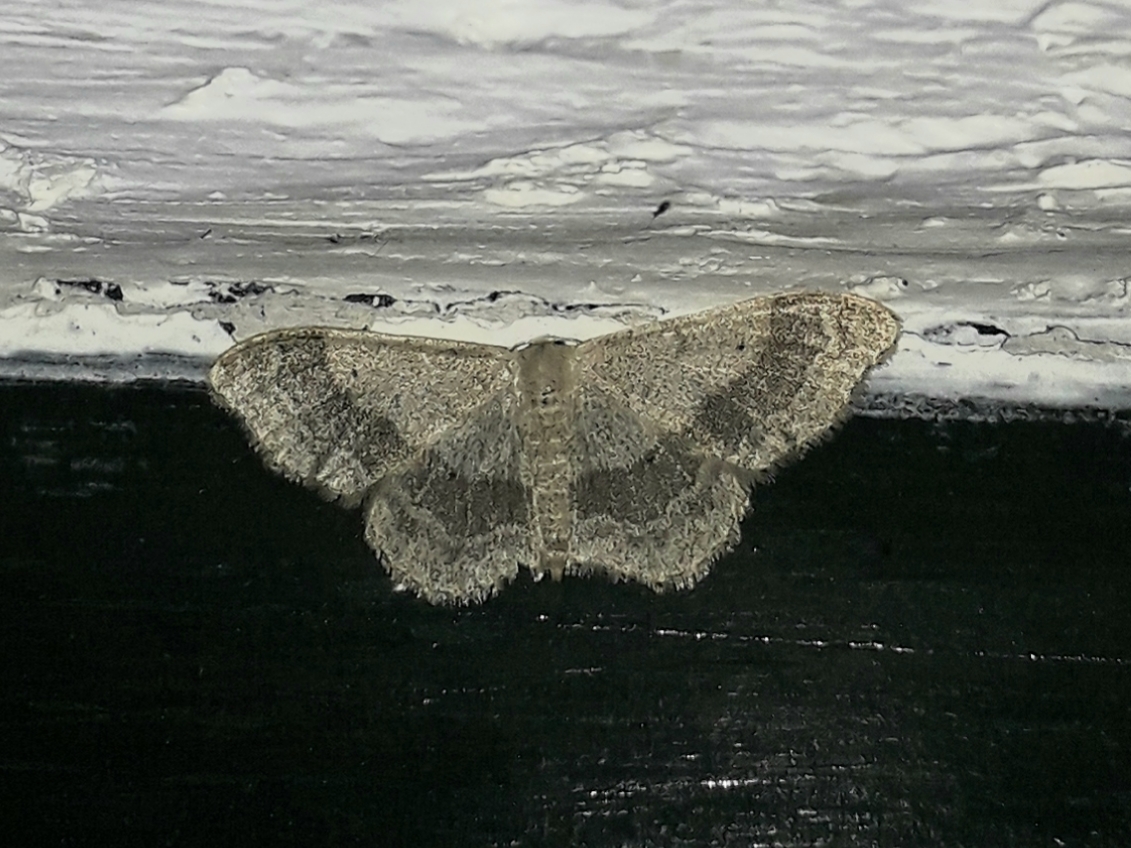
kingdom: Animalia
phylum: Arthropoda
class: Insecta
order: Lepidoptera
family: Geometridae
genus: Idaea
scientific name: Idaea aversata
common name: Riband wave
